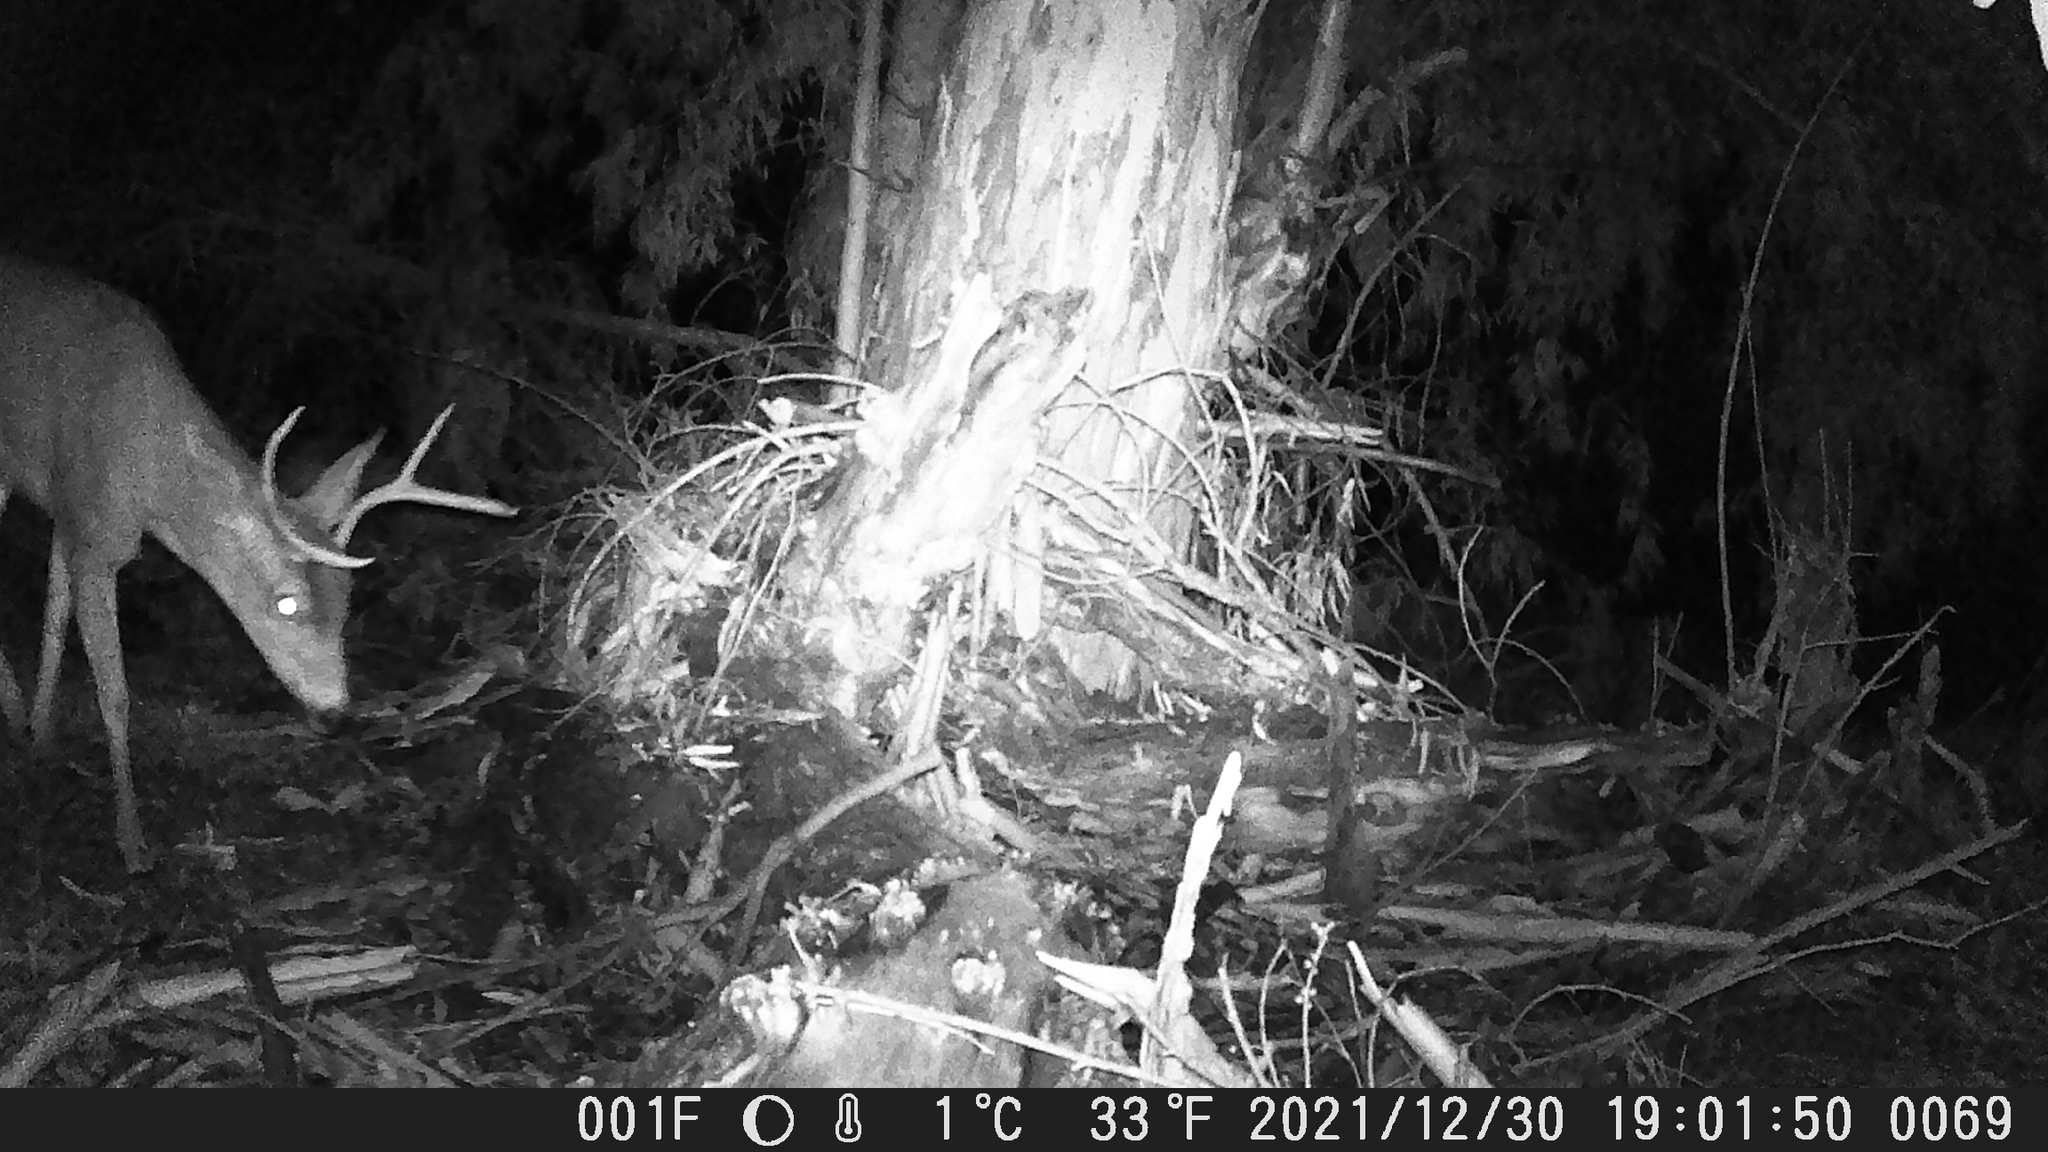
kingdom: Animalia
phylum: Chordata
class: Mammalia
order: Artiodactyla
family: Cervidae
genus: Odocoileus
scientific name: Odocoileus hemionus
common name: Mule deer
